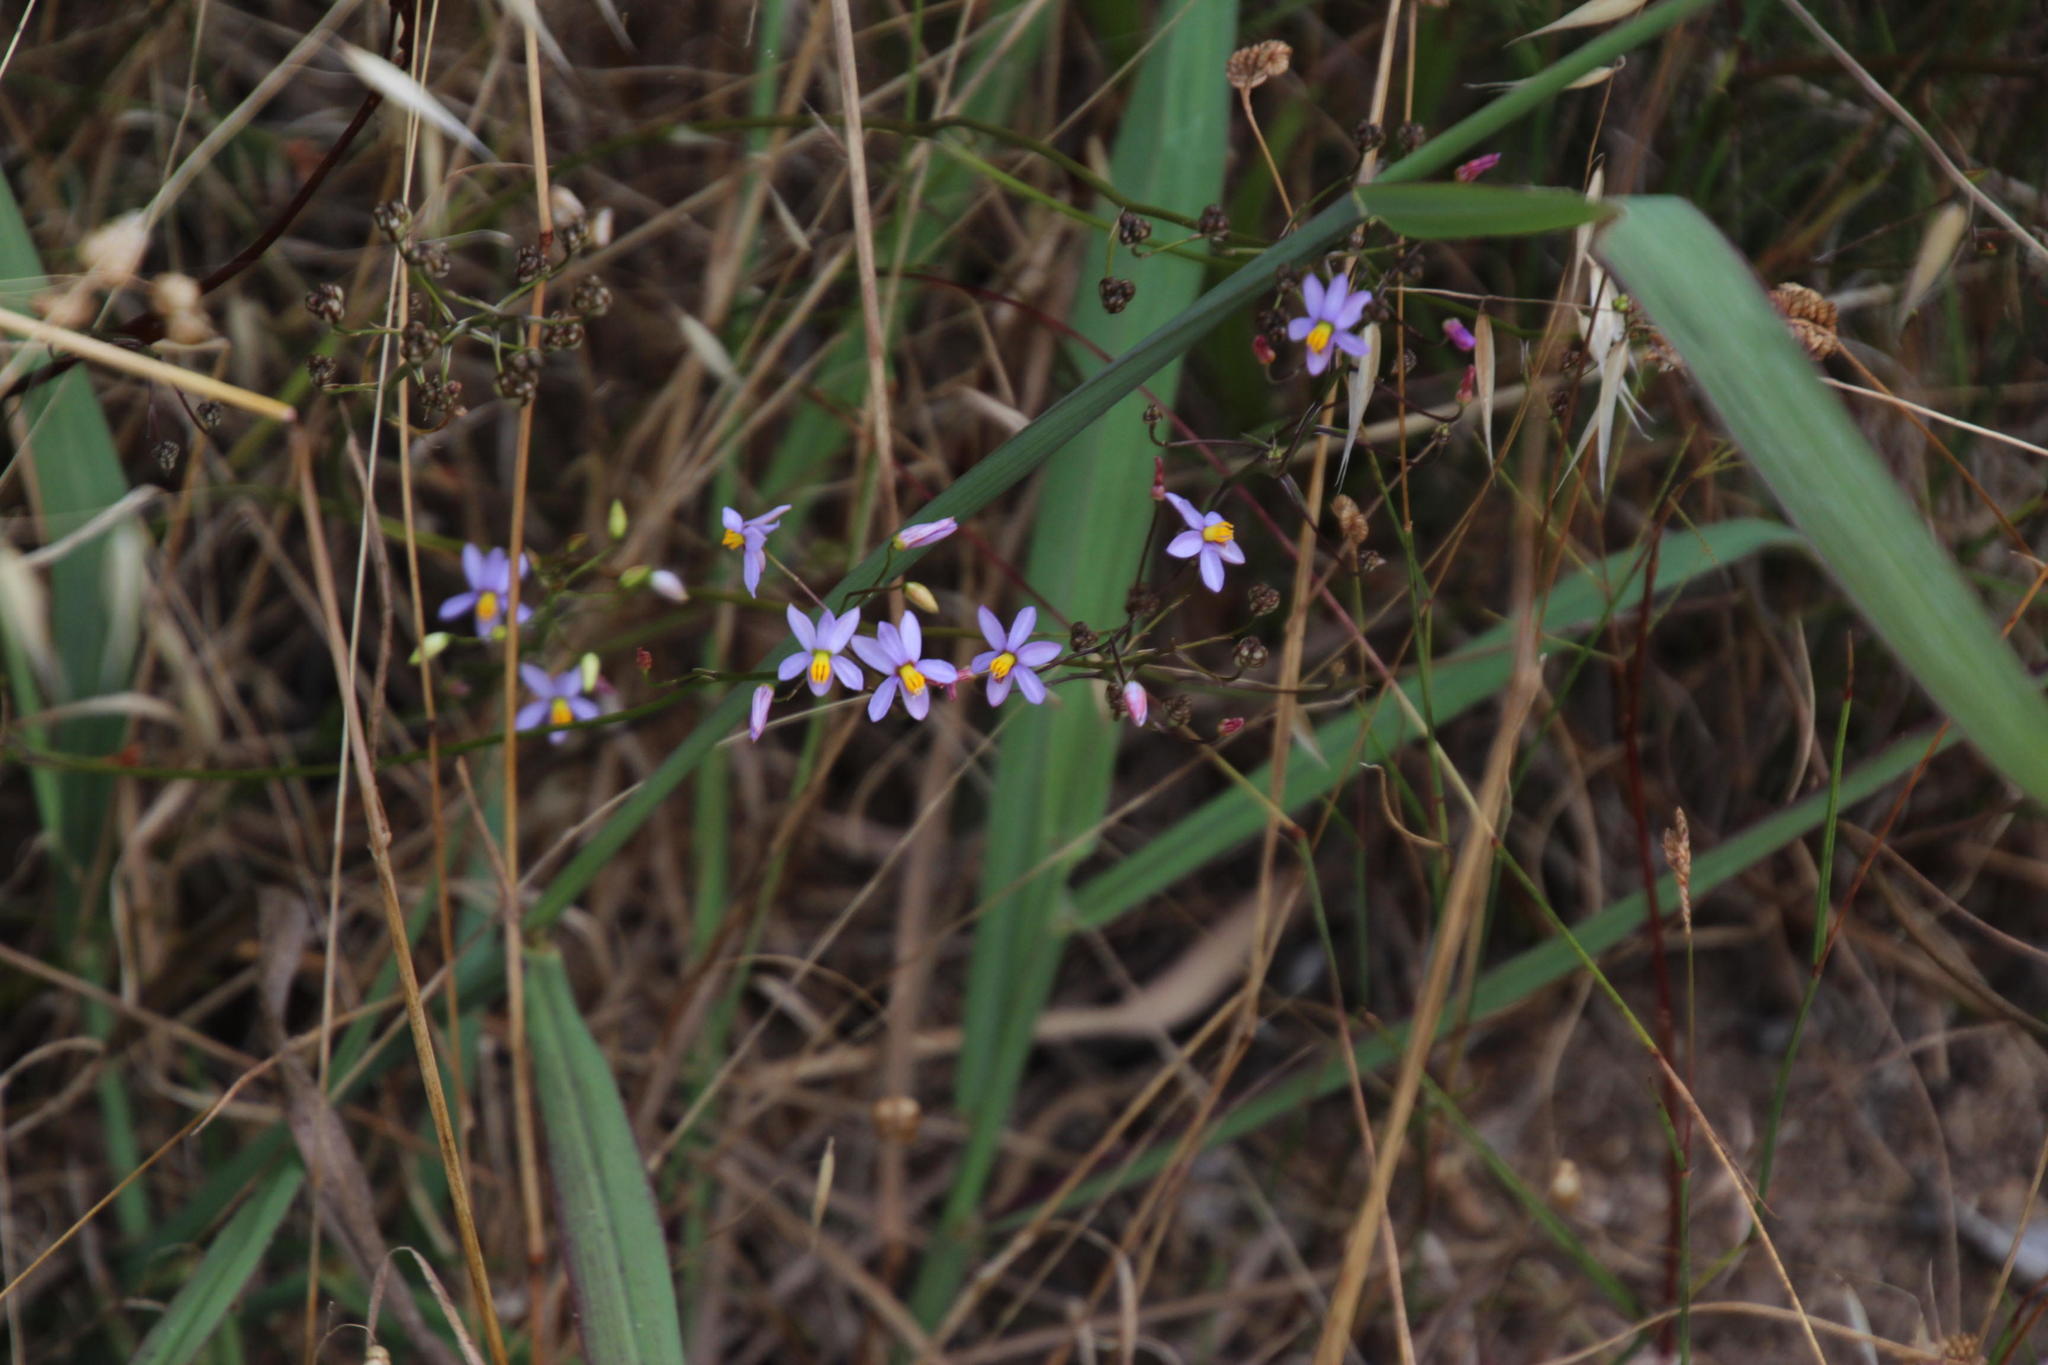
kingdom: Plantae
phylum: Tracheophyta
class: Liliopsida
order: Asparagales
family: Tecophilaeaceae
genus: Cyanella
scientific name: Cyanella hyacinthoides
